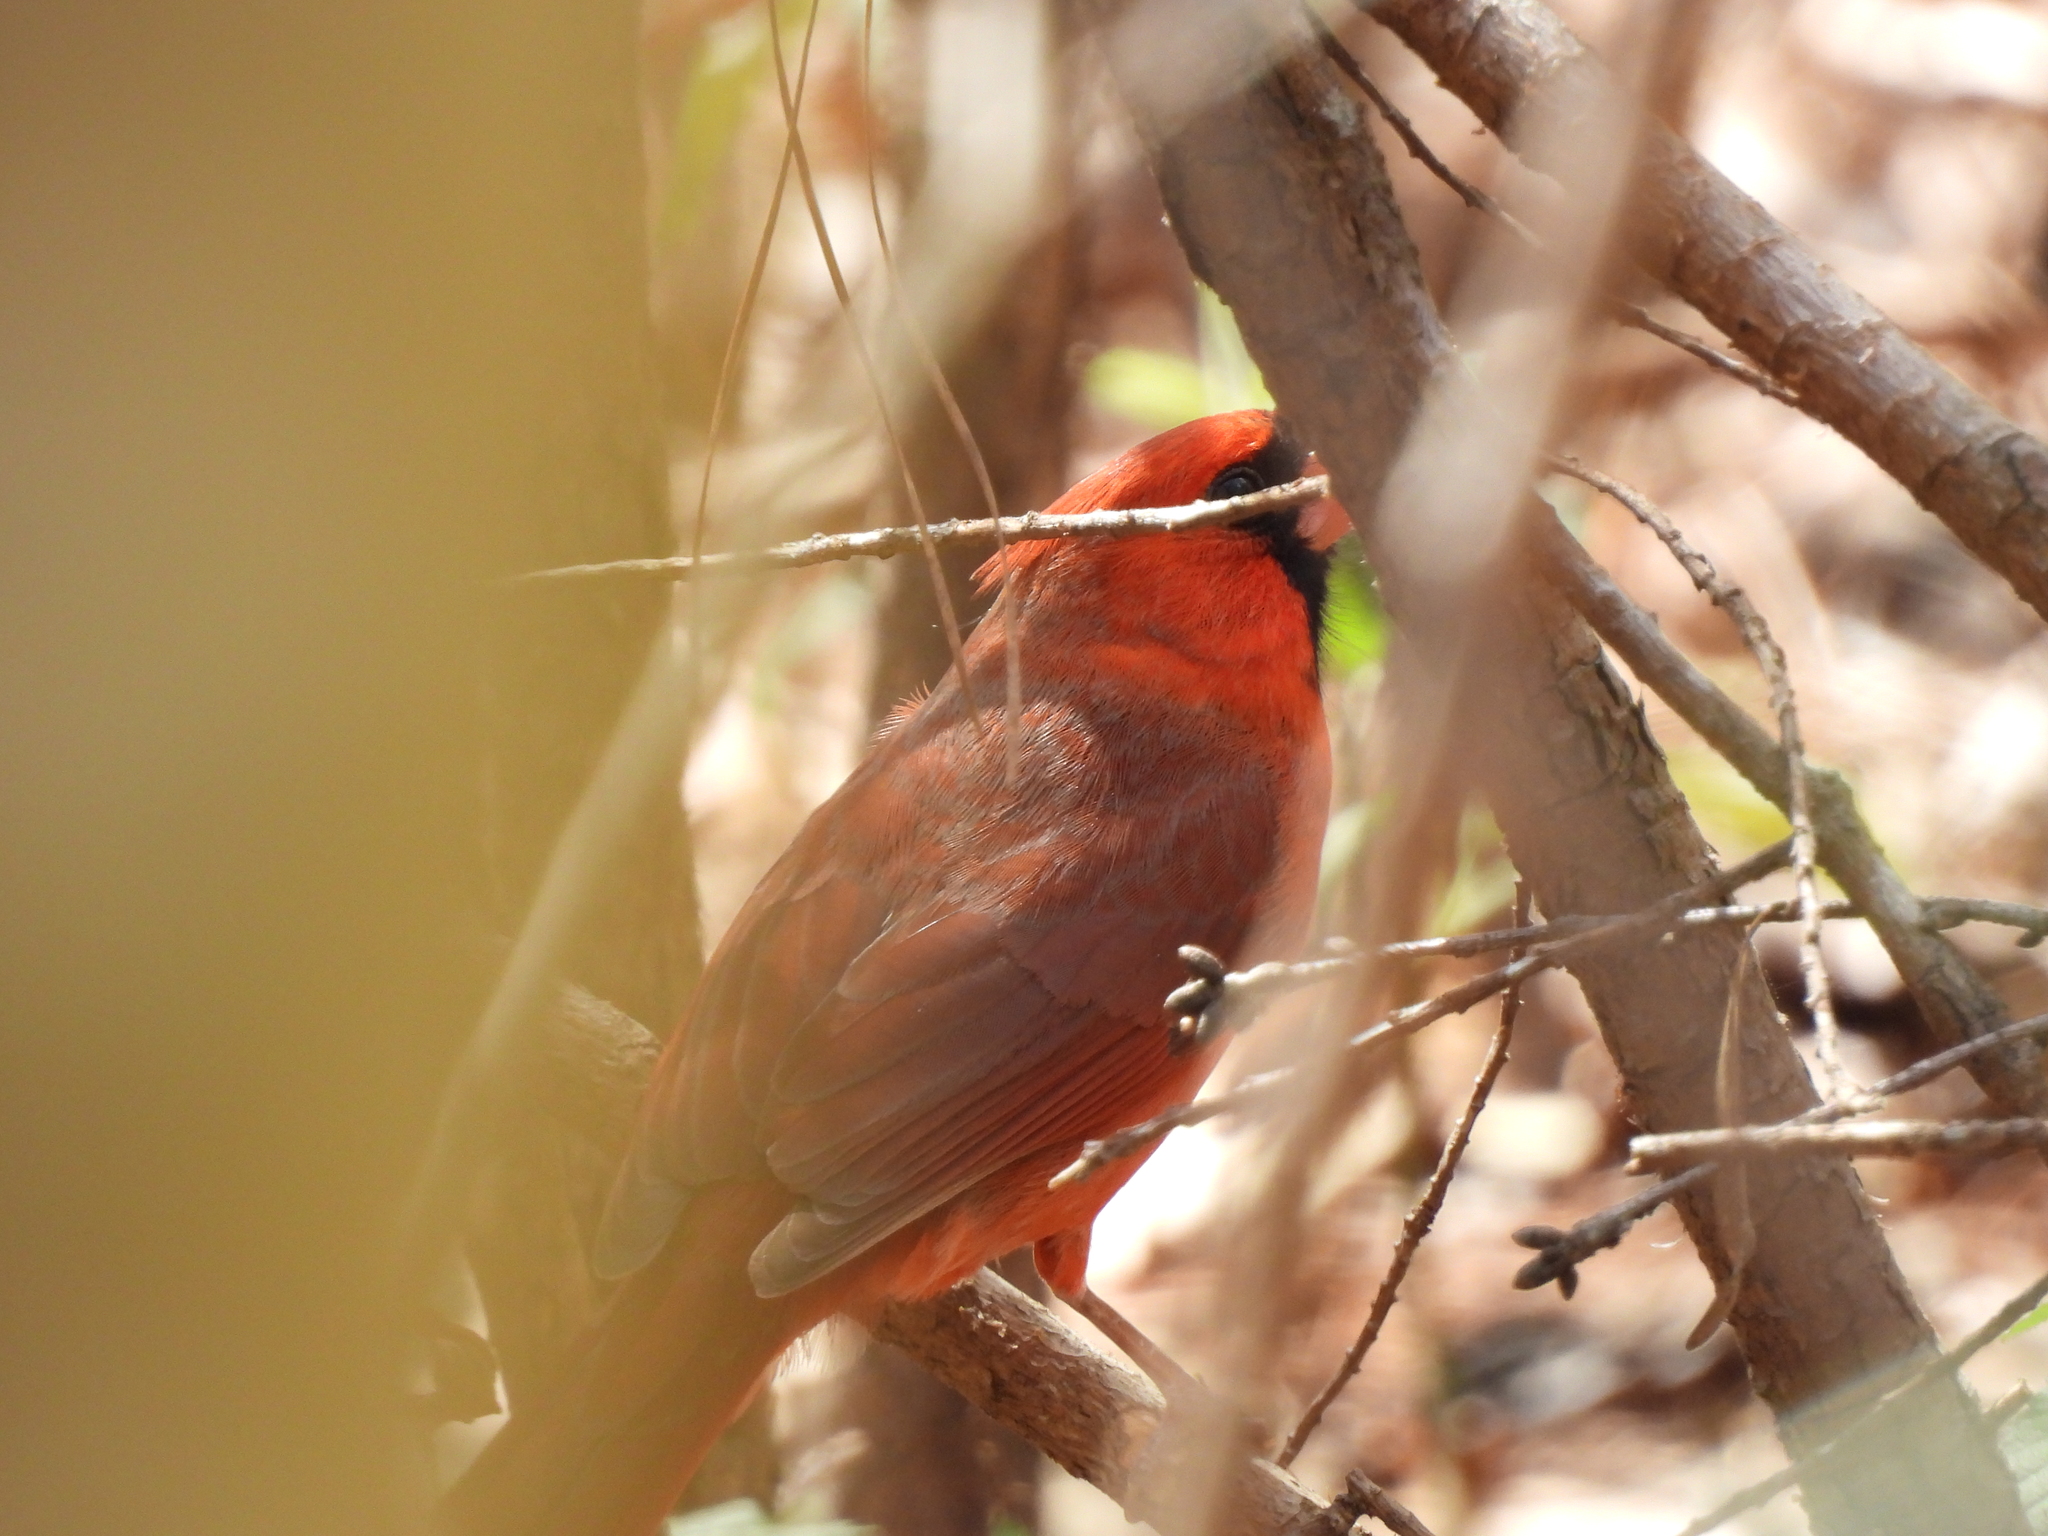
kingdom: Animalia
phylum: Chordata
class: Aves
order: Passeriformes
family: Cardinalidae
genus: Cardinalis
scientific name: Cardinalis cardinalis
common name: Northern cardinal
